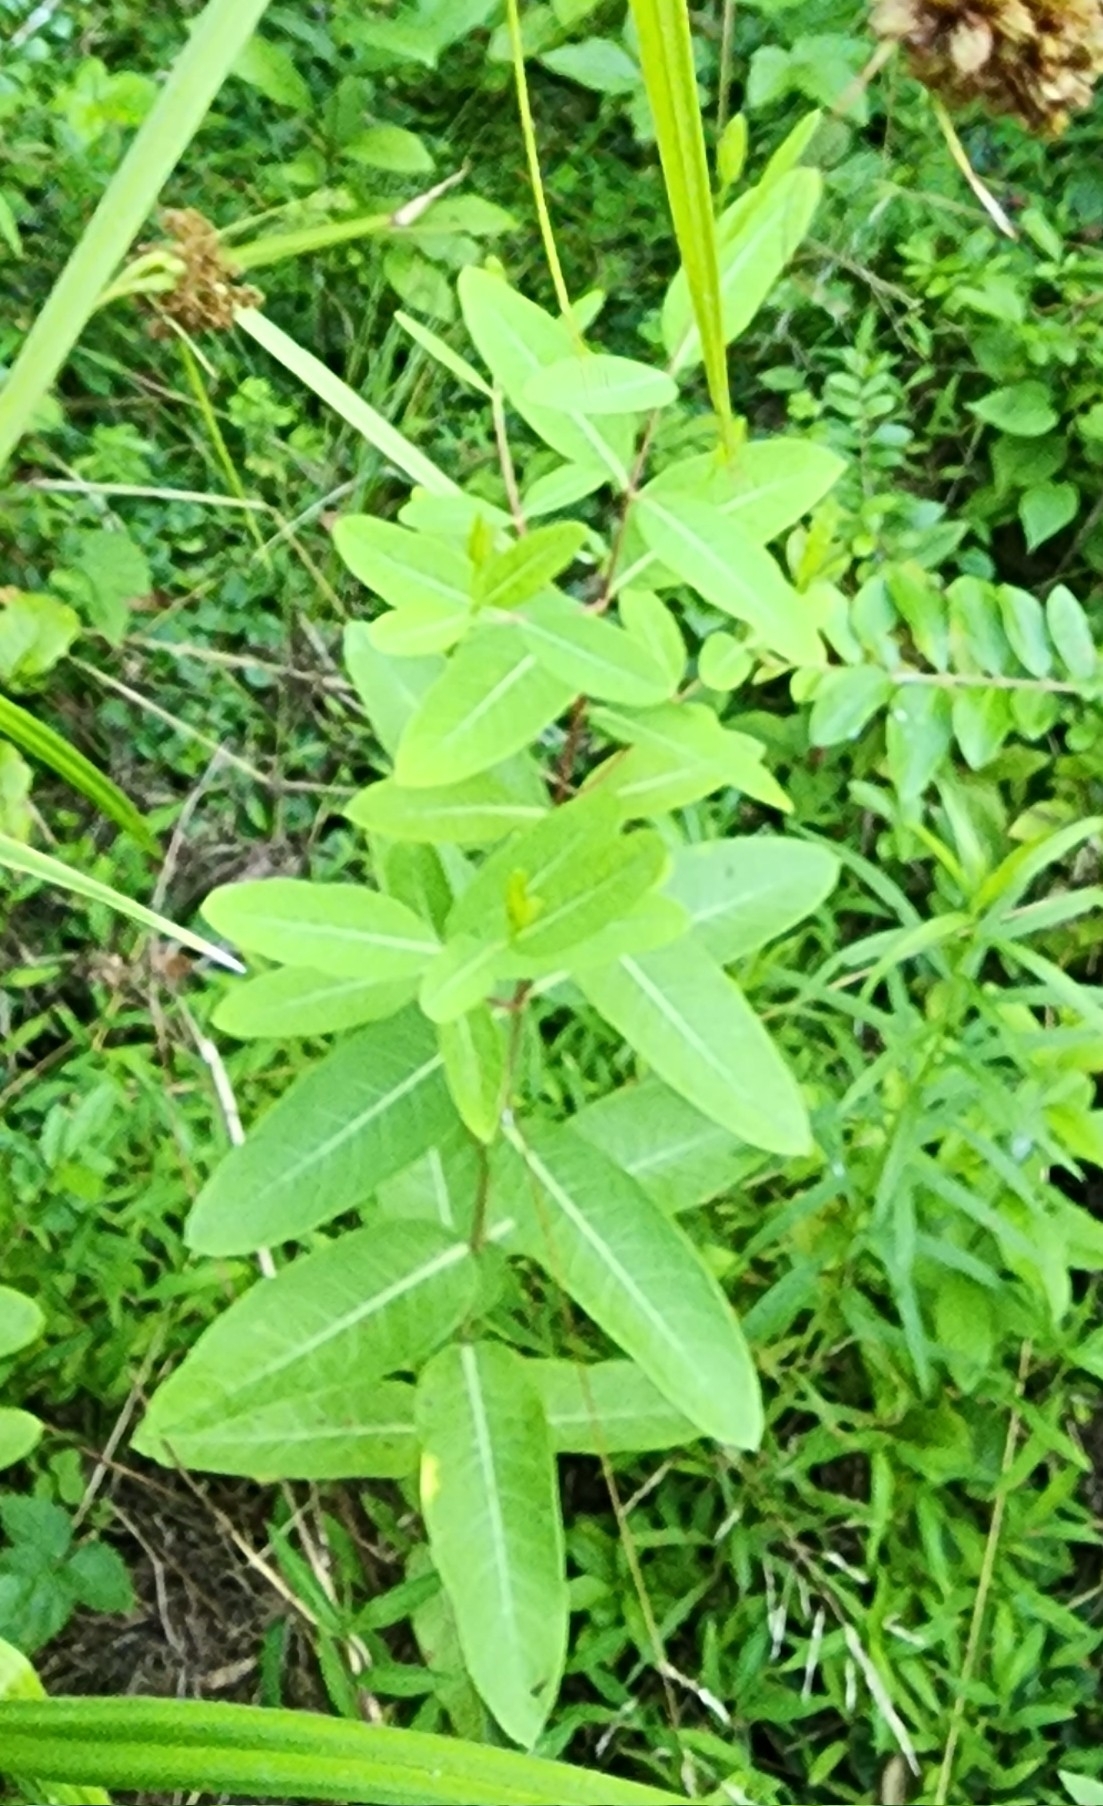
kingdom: Plantae
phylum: Tracheophyta
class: Magnoliopsida
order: Gentianales
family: Apocynaceae
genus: Apocynum
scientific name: Apocynum cannabinum
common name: Hemp dogbane
